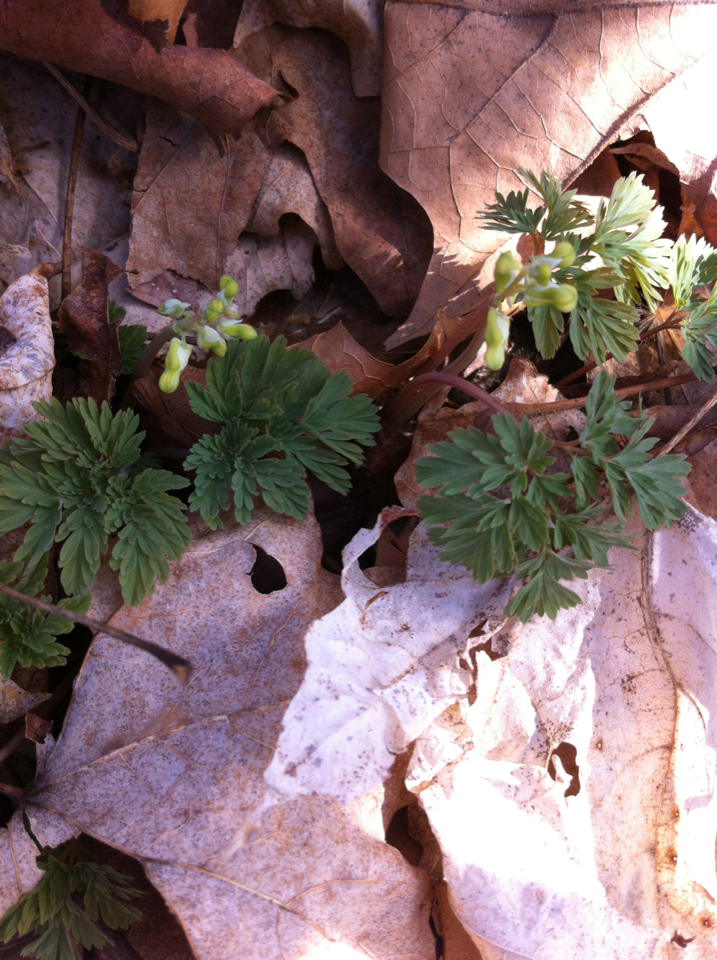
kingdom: Plantae
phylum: Tracheophyta
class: Magnoliopsida
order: Ranunculales
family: Papaveraceae
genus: Dicentra
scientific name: Dicentra cucullaria
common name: Dutchman's breeches
